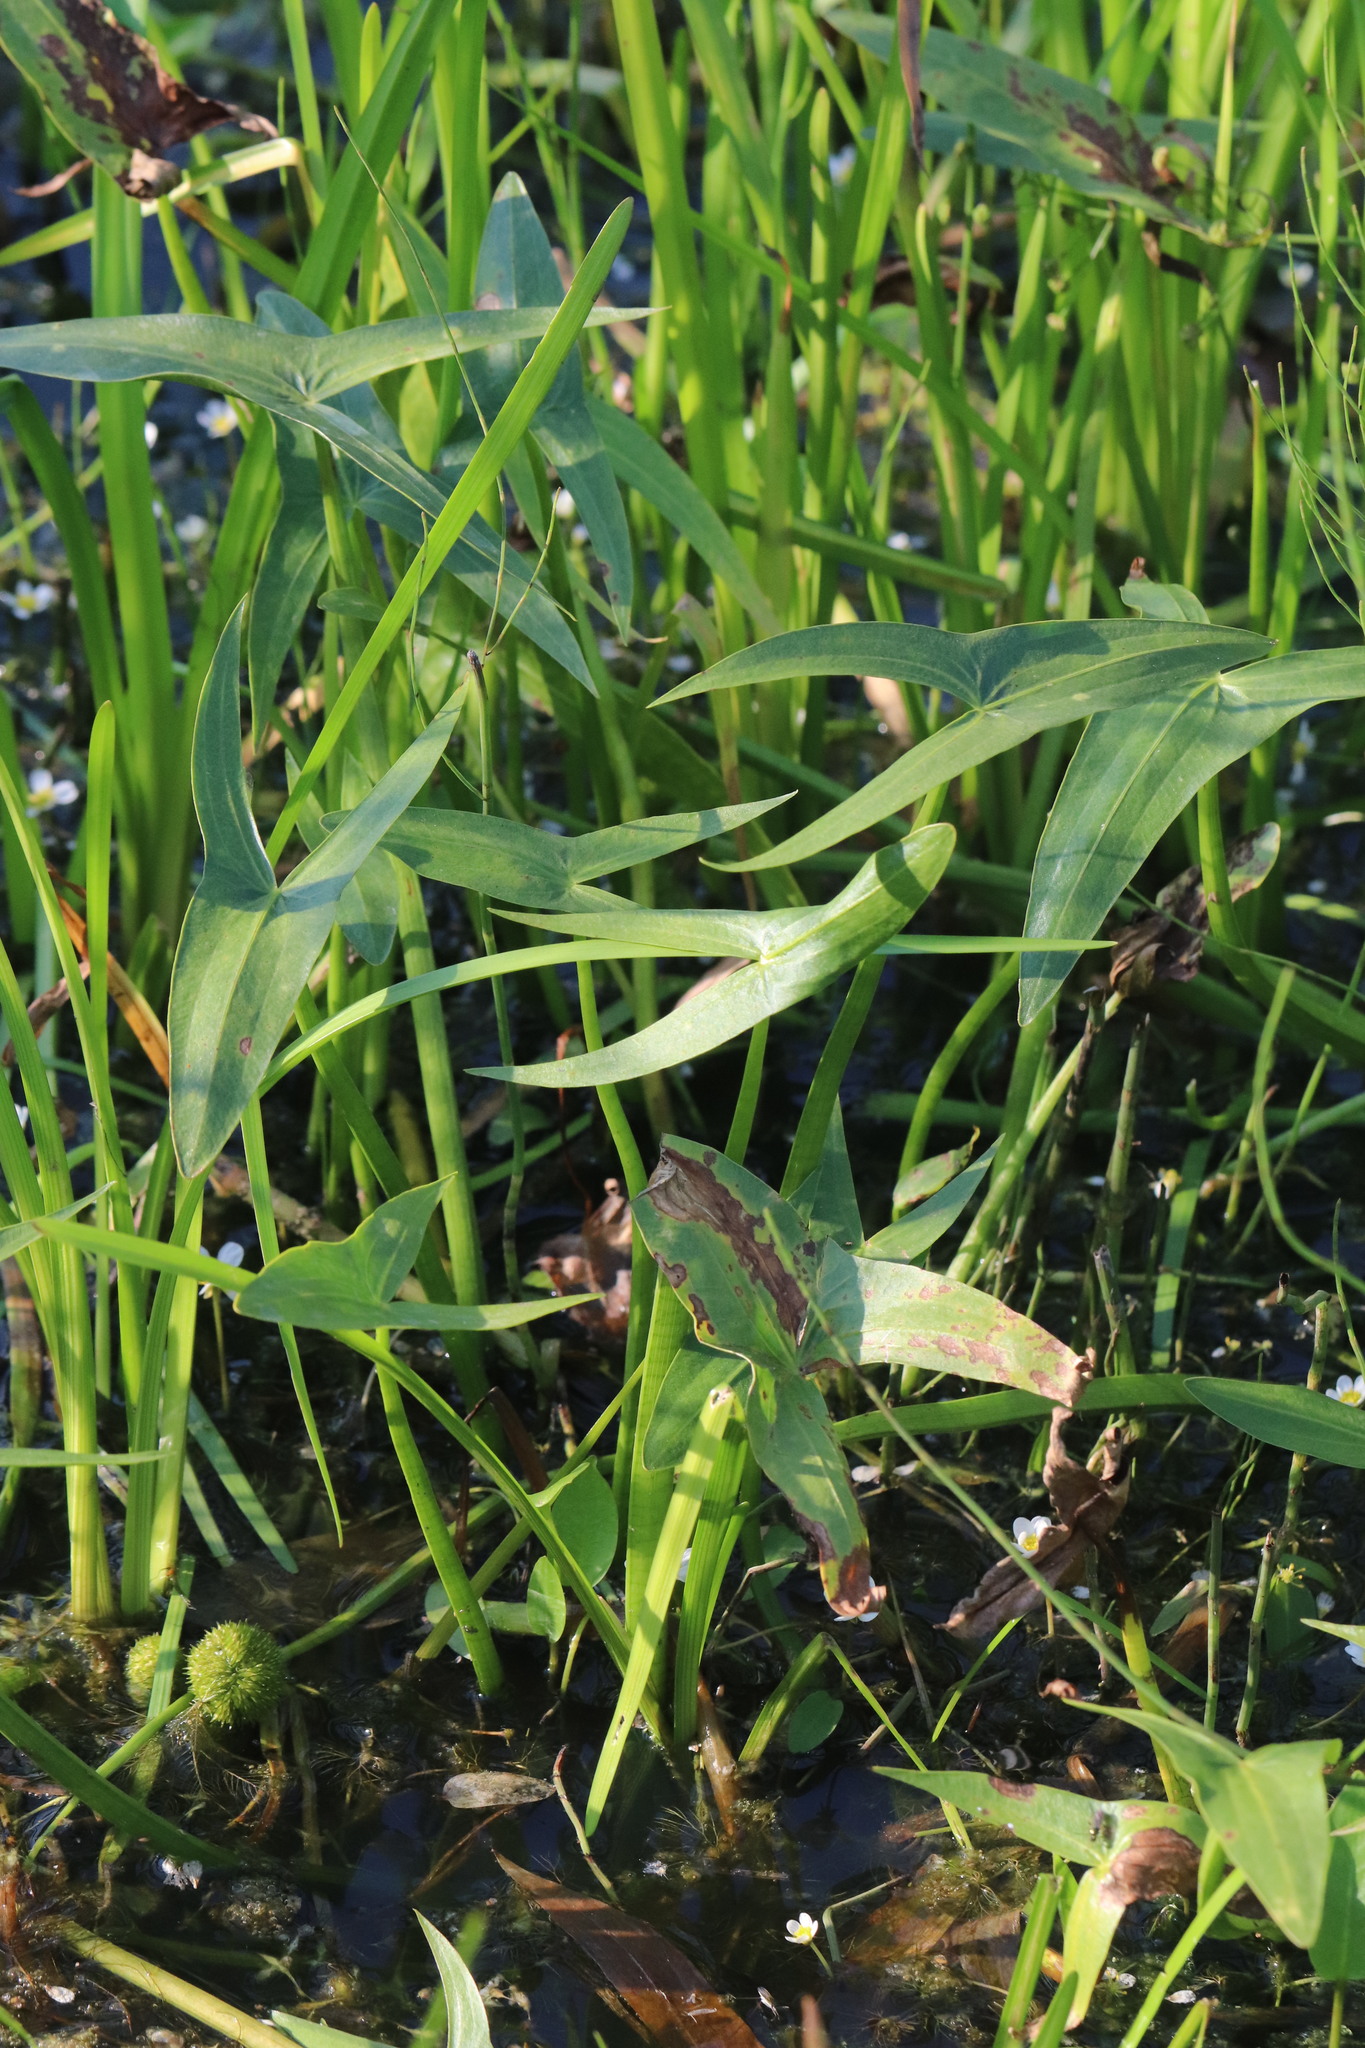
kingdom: Plantae
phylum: Tracheophyta
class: Liliopsida
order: Alismatales
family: Alismataceae
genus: Sagittaria
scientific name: Sagittaria sagittifolia
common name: Arrowhead
